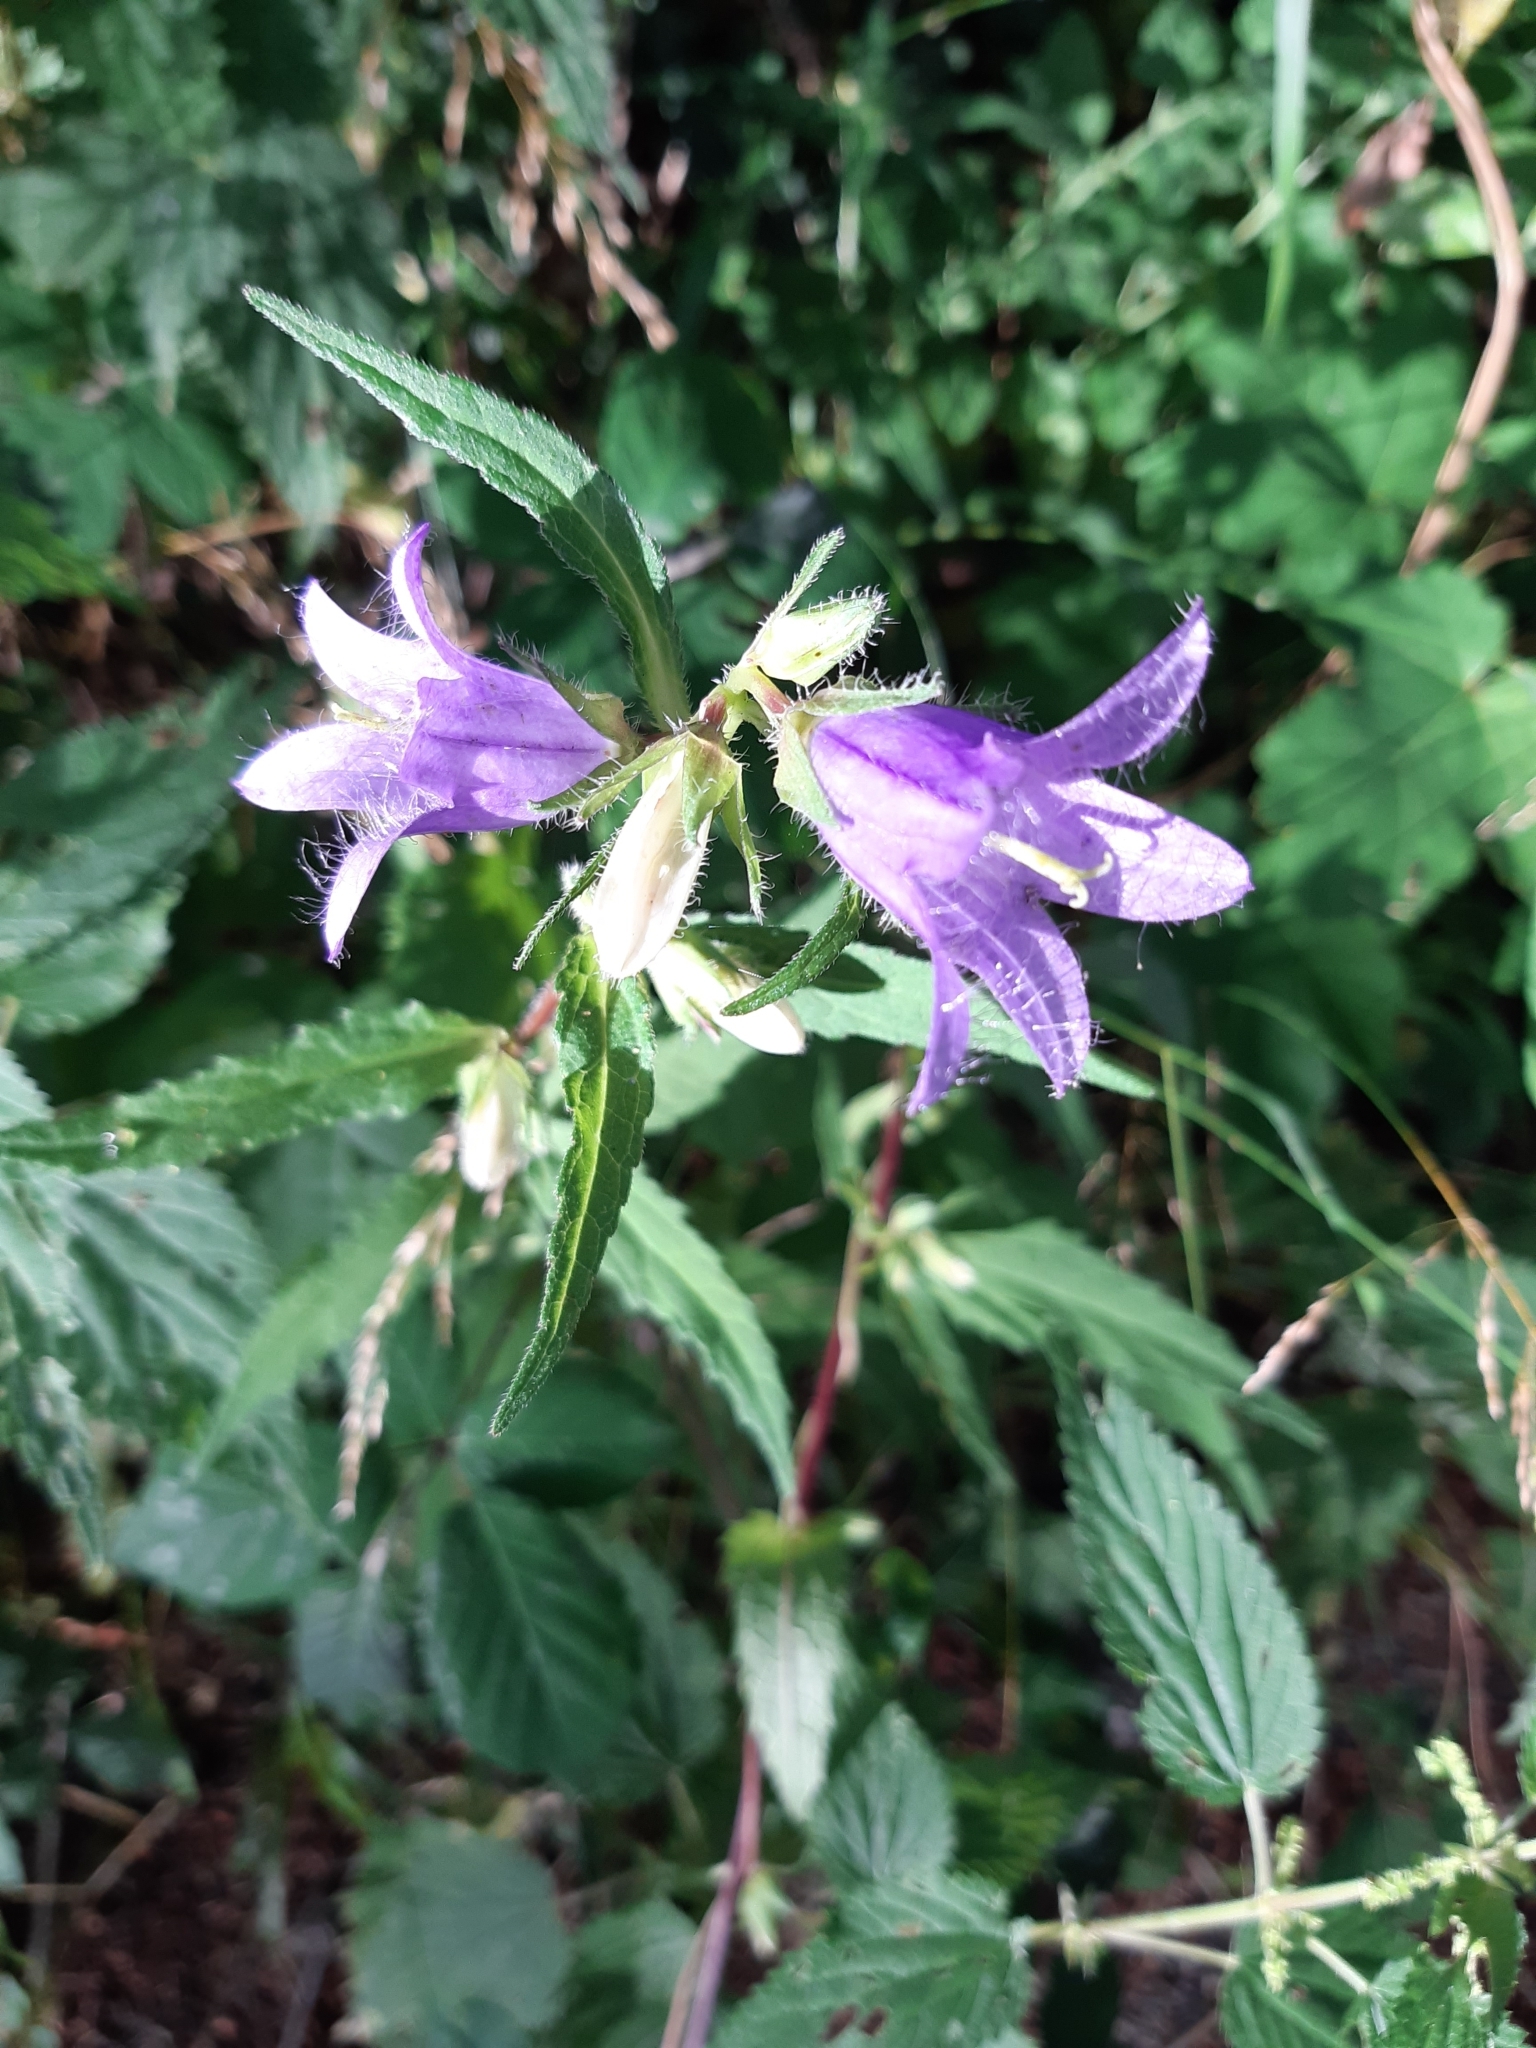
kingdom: Plantae
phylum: Tracheophyta
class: Magnoliopsida
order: Asterales
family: Campanulaceae
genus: Campanula
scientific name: Campanula trachelium
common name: Nettle-leaved bellflower
